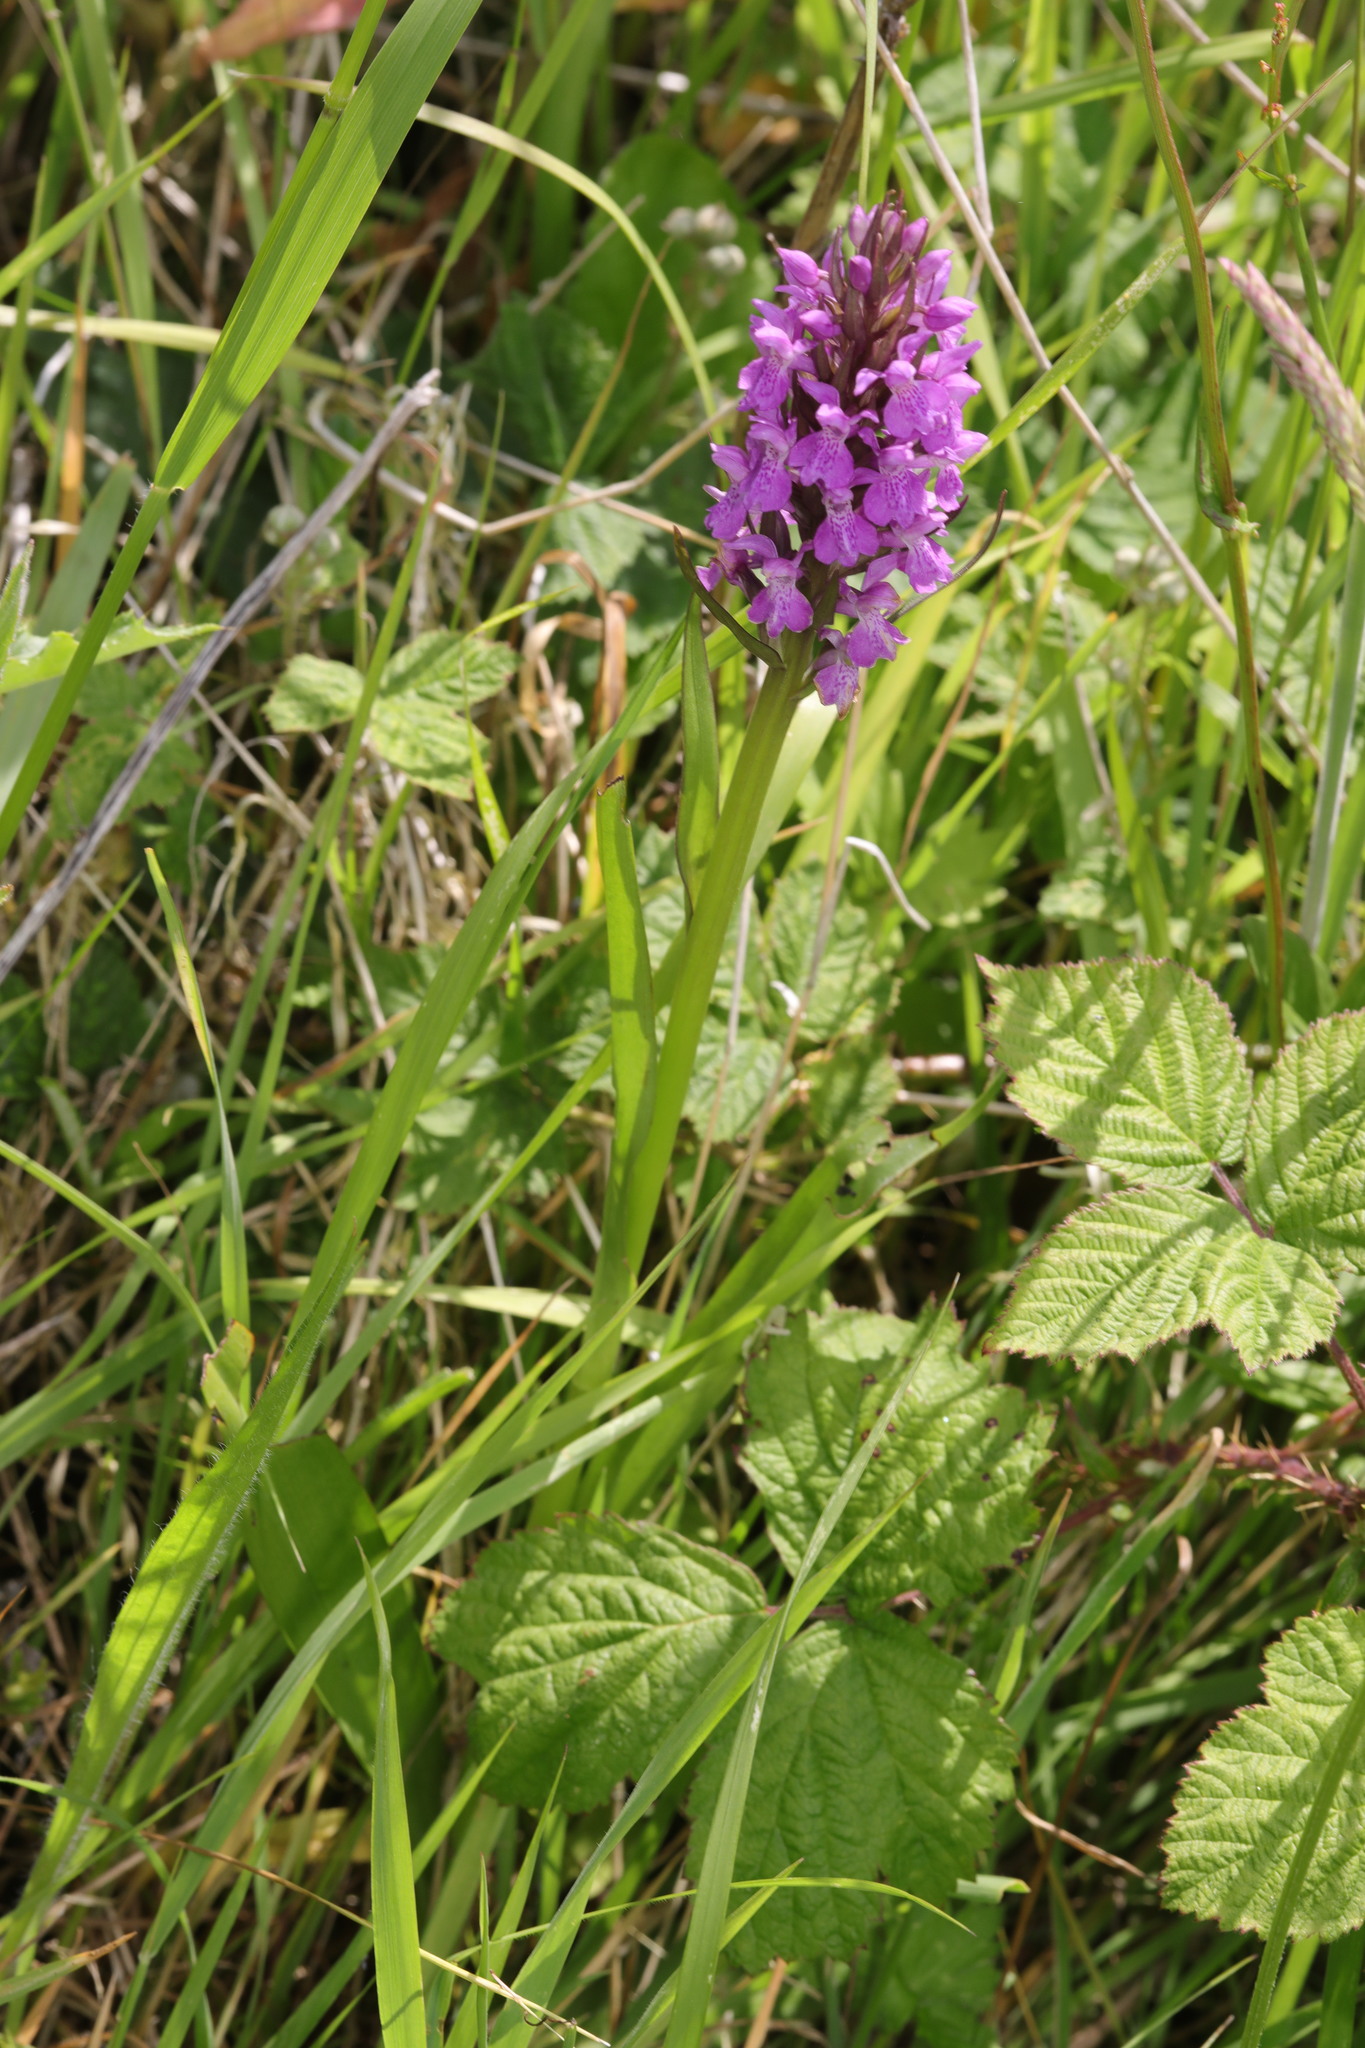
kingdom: Plantae
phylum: Tracheophyta
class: Liliopsida
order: Asparagales
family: Orchidaceae
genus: Dactylorhiza
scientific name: Dactylorhiza majalis
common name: Marsh orchid
